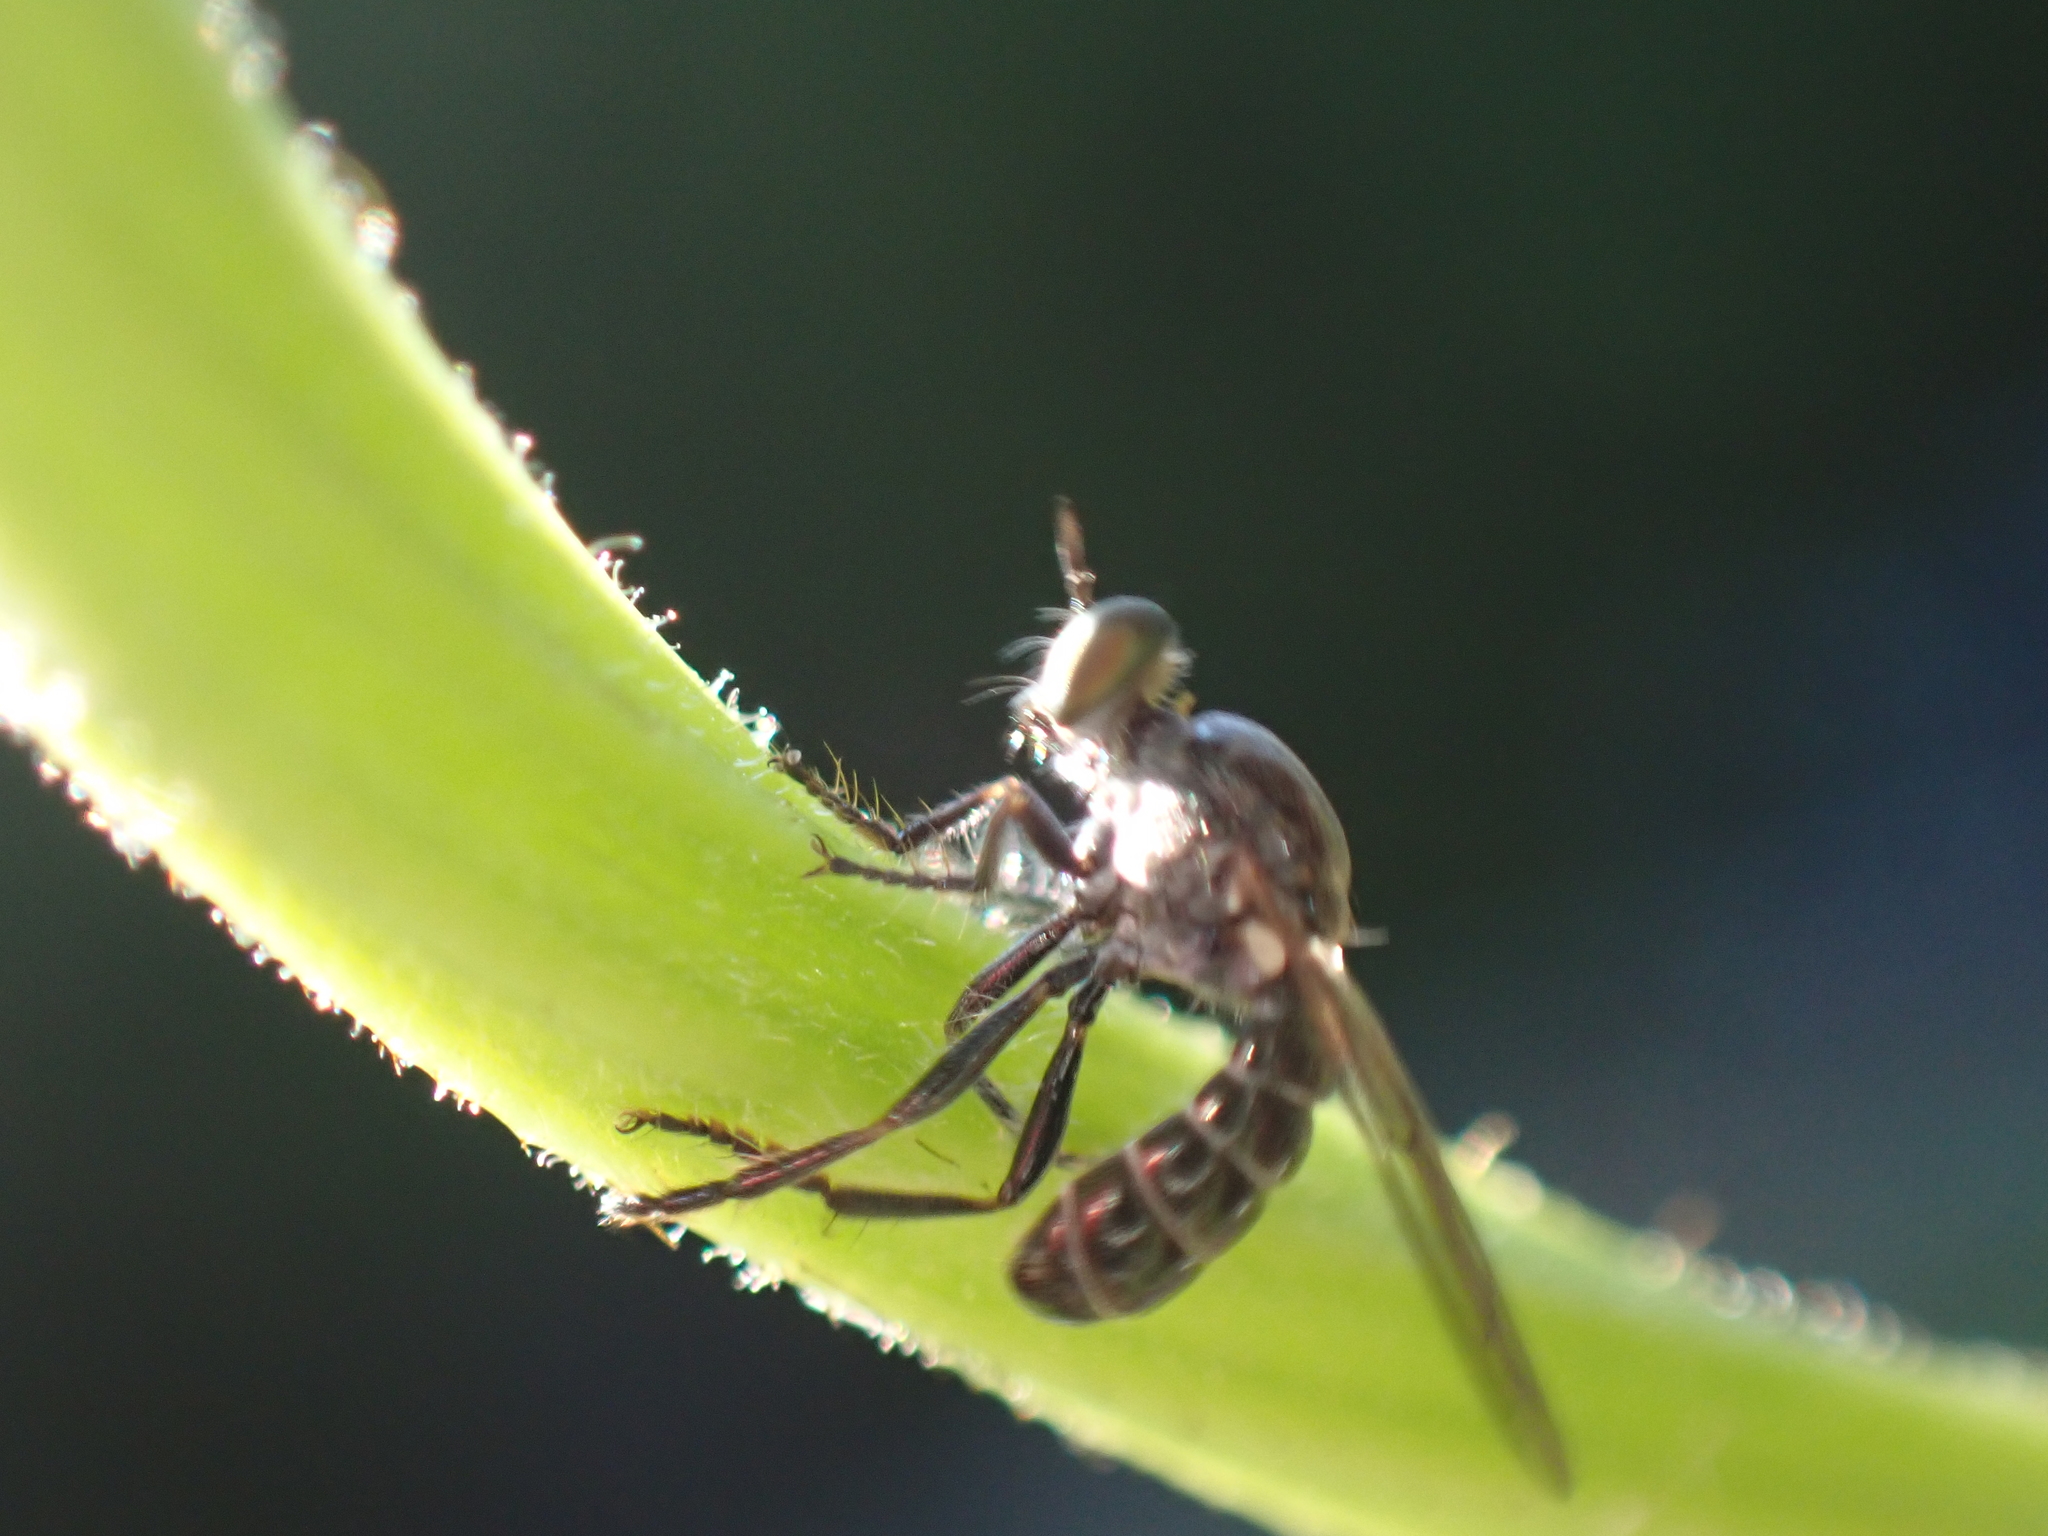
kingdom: Animalia
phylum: Arthropoda
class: Insecta
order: Diptera
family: Asilidae
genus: Atomosia
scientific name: Atomosia puella
